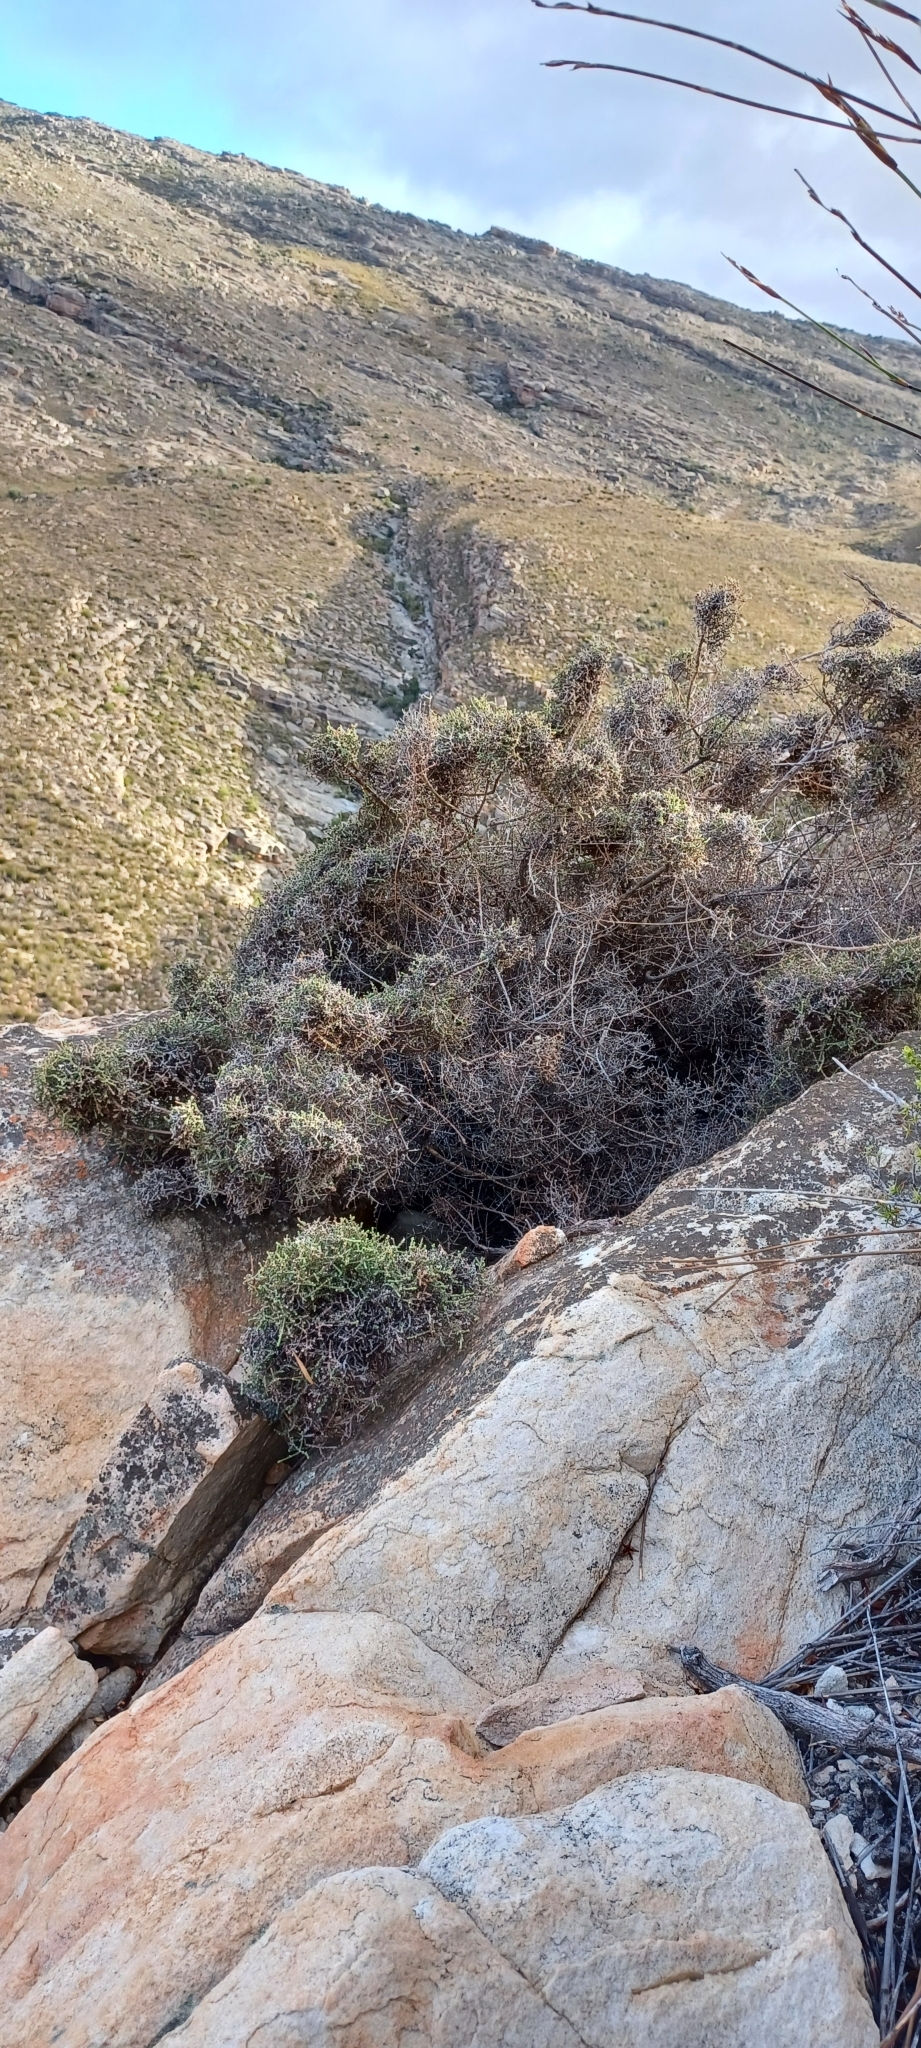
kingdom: Plantae
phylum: Tracheophyta
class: Magnoliopsida
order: Asterales
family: Asteraceae
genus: Myrovernix
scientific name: Myrovernix intricata
